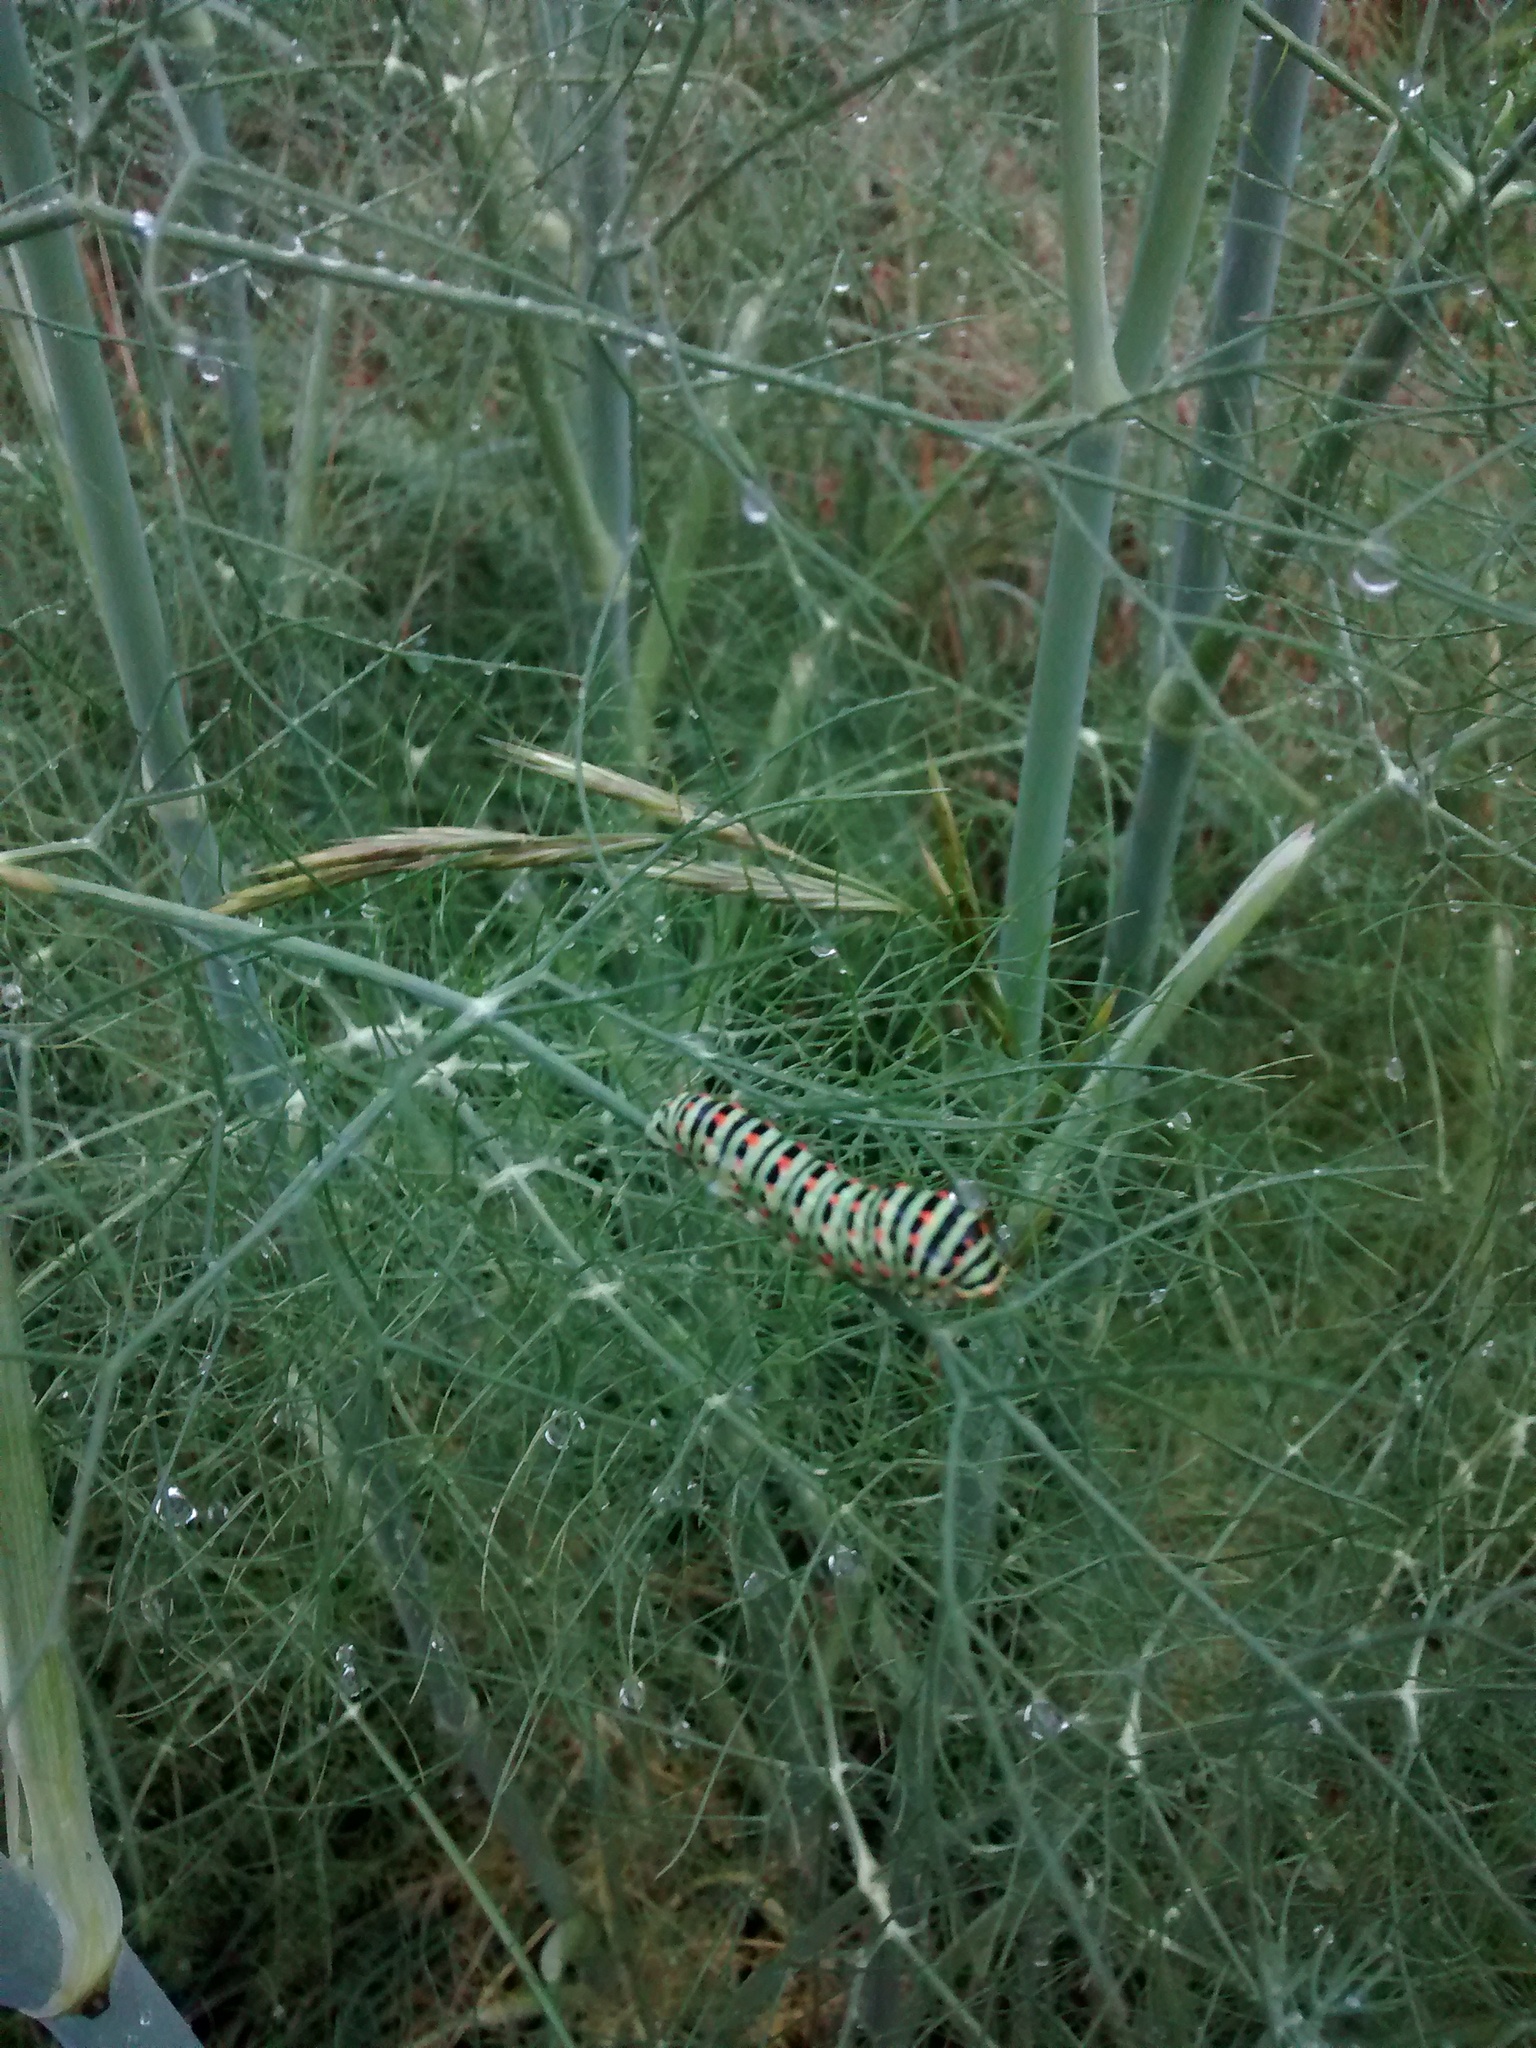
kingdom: Animalia
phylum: Arthropoda
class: Insecta
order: Lepidoptera
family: Papilionidae
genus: Papilio
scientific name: Papilio machaon
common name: Swallowtail
